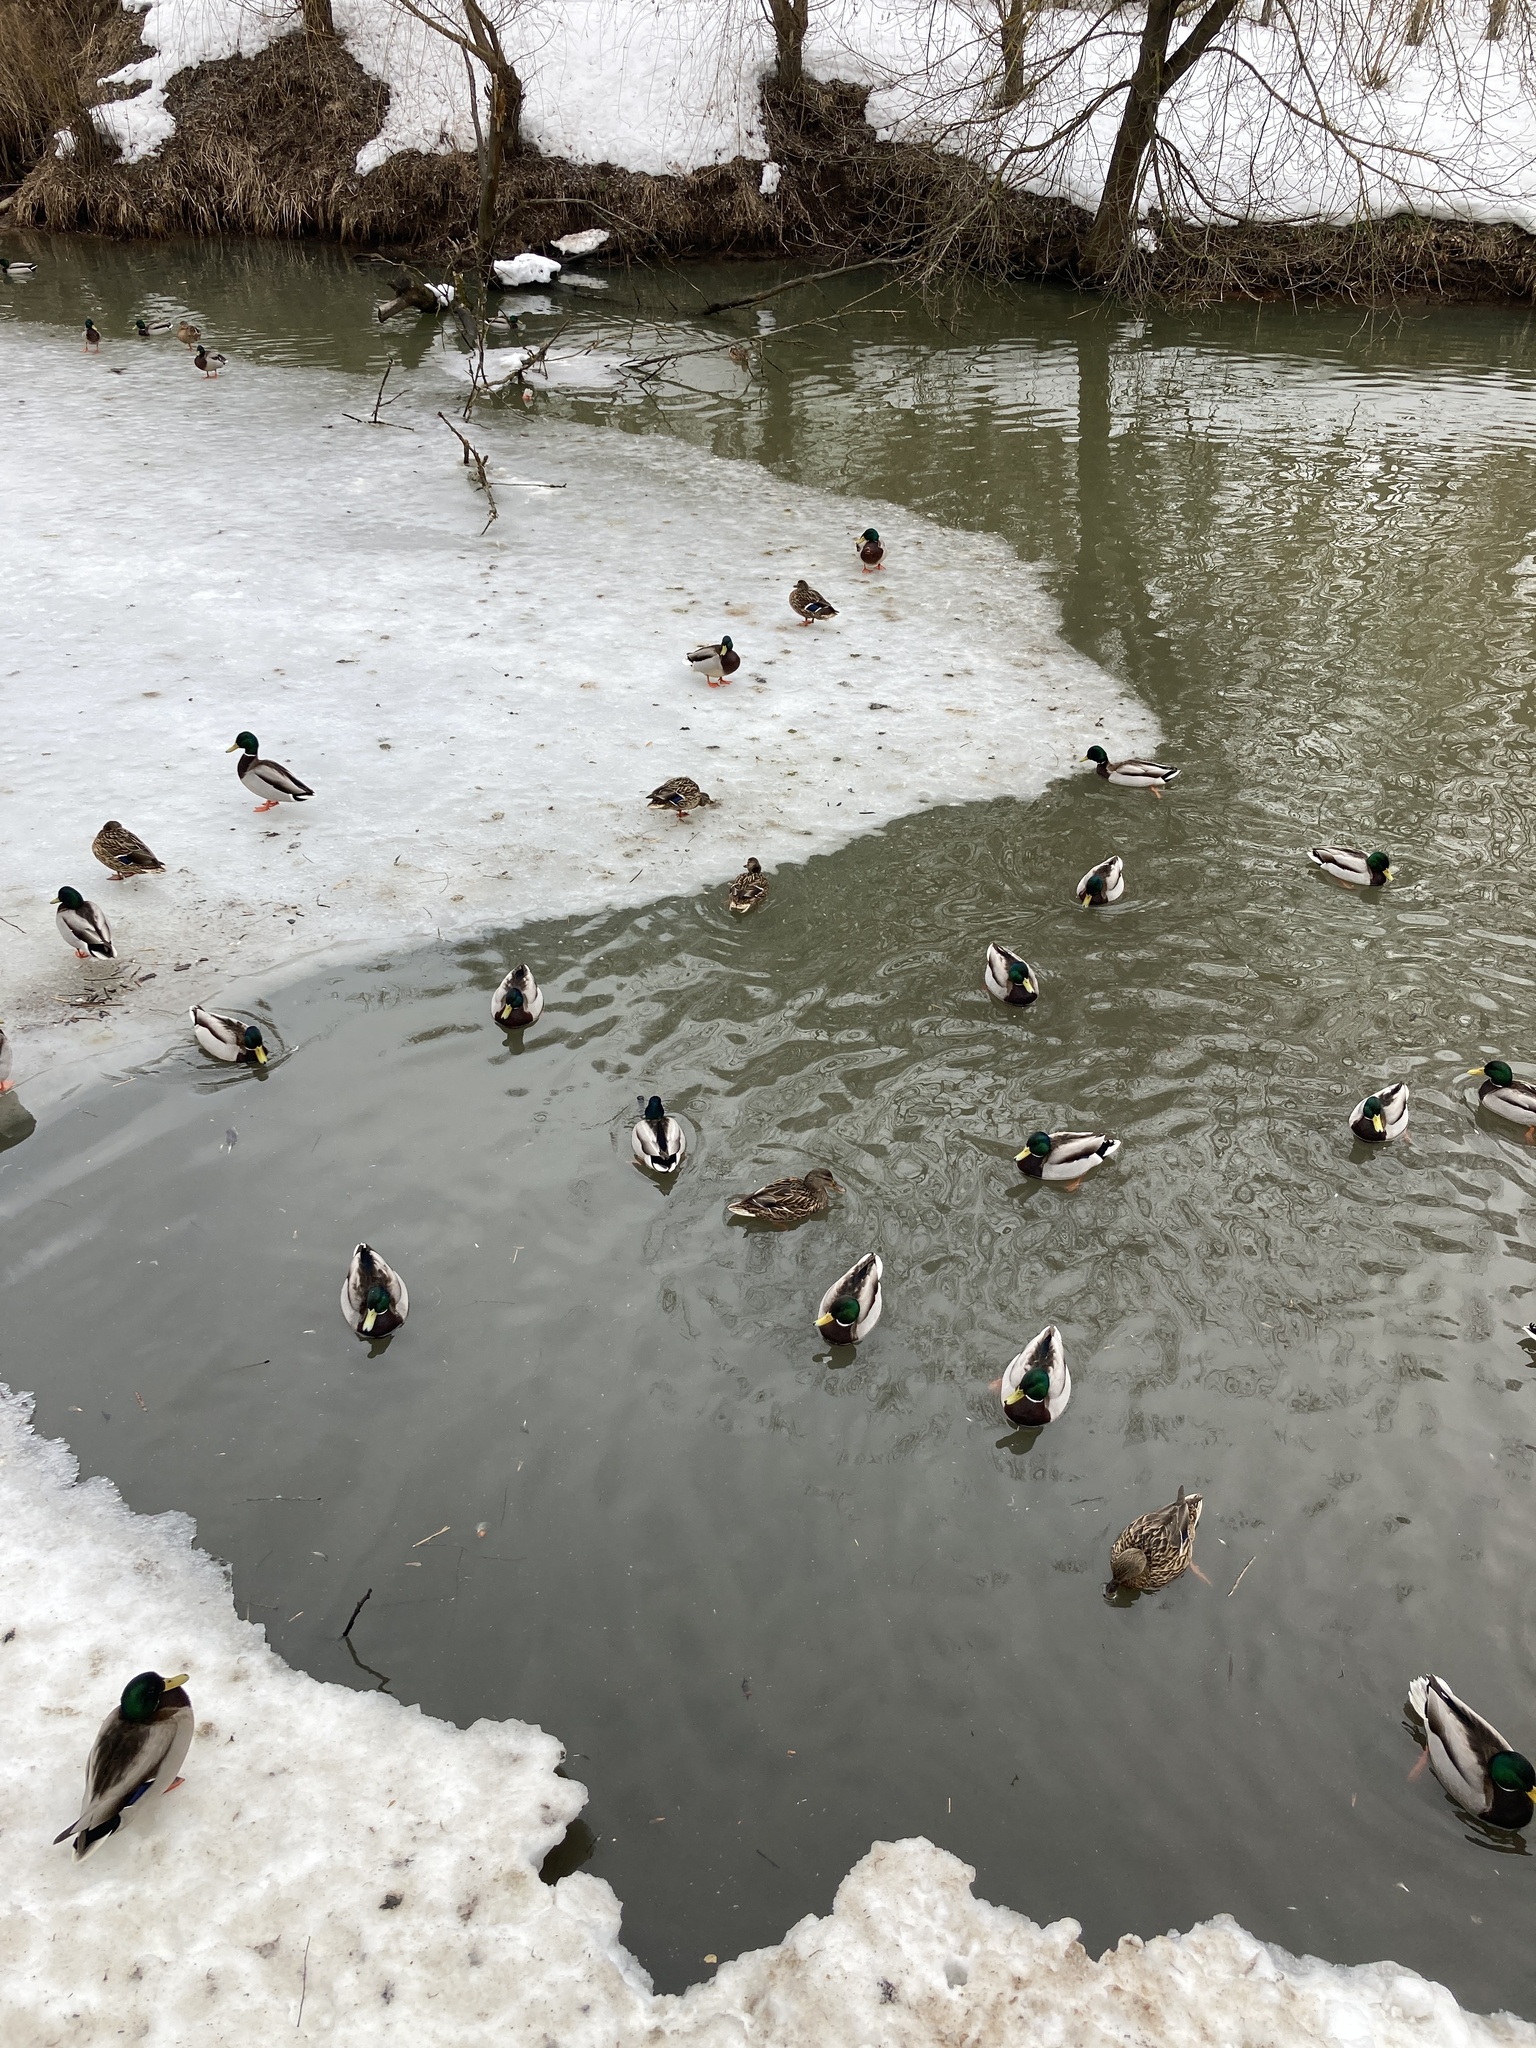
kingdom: Animalia
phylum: Chordata
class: Aves
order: Anseriformes
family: Anatidae
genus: Anas
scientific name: Anas platyrhynchos
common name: Mallard
